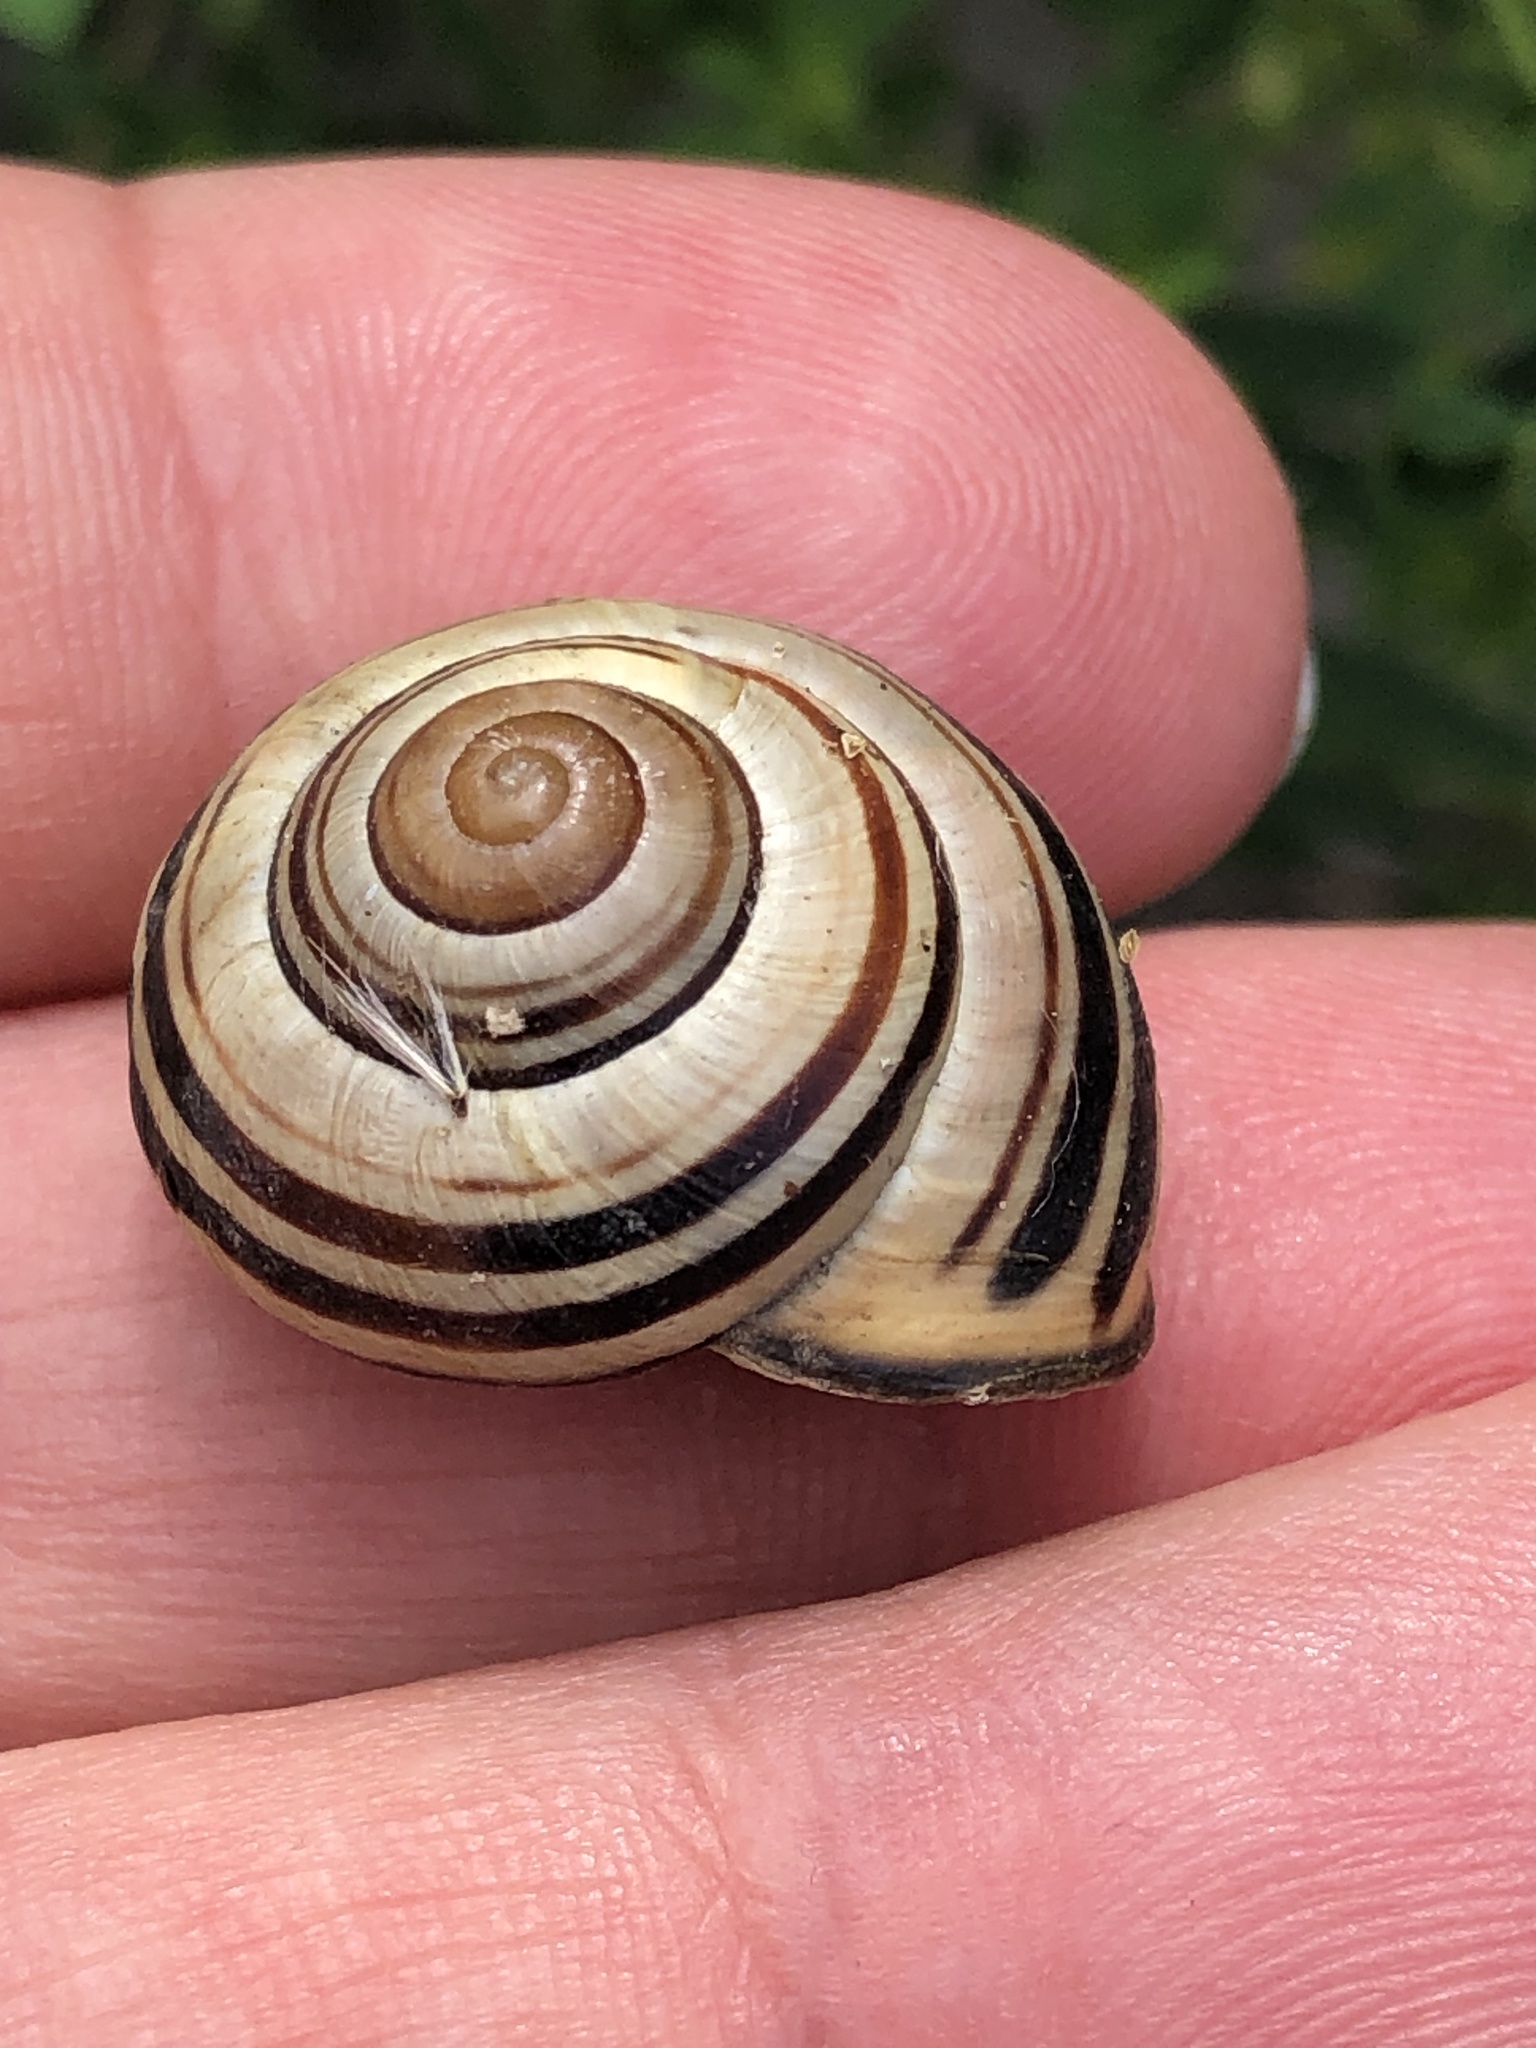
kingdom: Animalia
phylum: Mollusca
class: Gastropoda
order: Stylommatophora
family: Helicidae
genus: Cepaea
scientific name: Cepaea nemoralis
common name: Grovesnail
